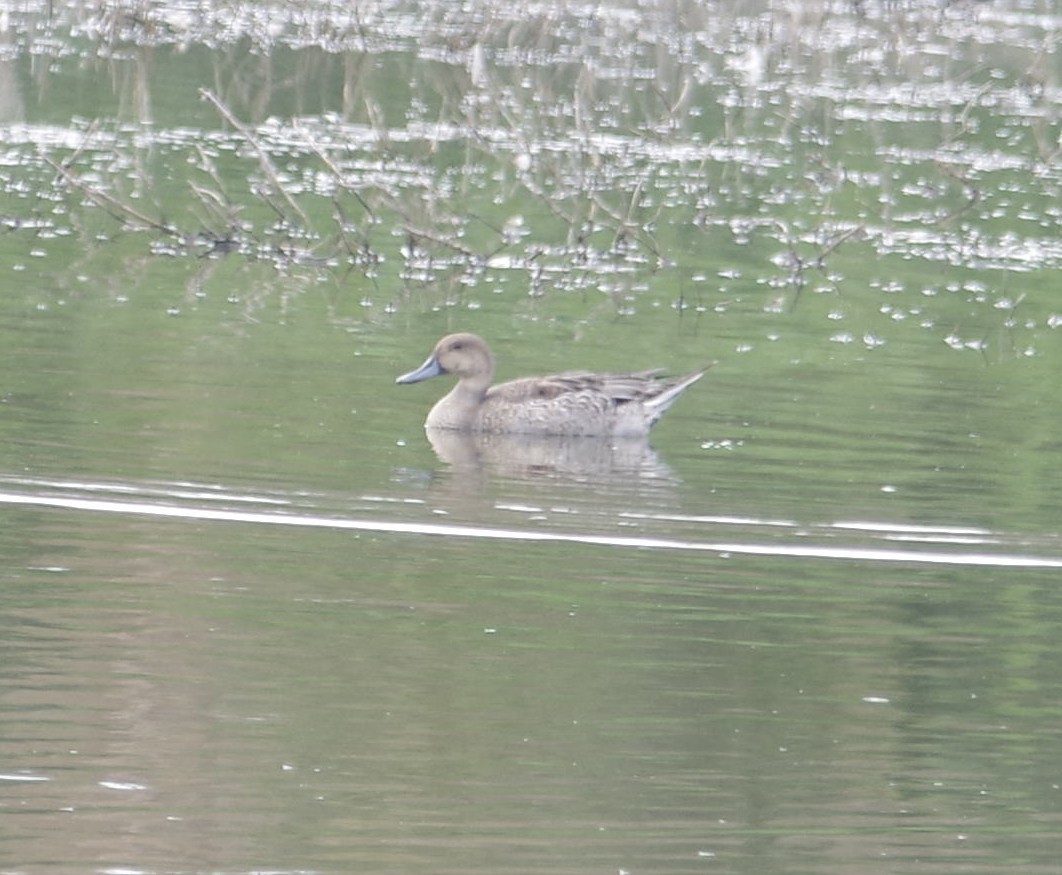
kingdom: Animalia
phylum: Chordata
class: Aves
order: Anseriformes
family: Anatidae
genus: Anas
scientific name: Anas acuta
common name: Northern pintail
